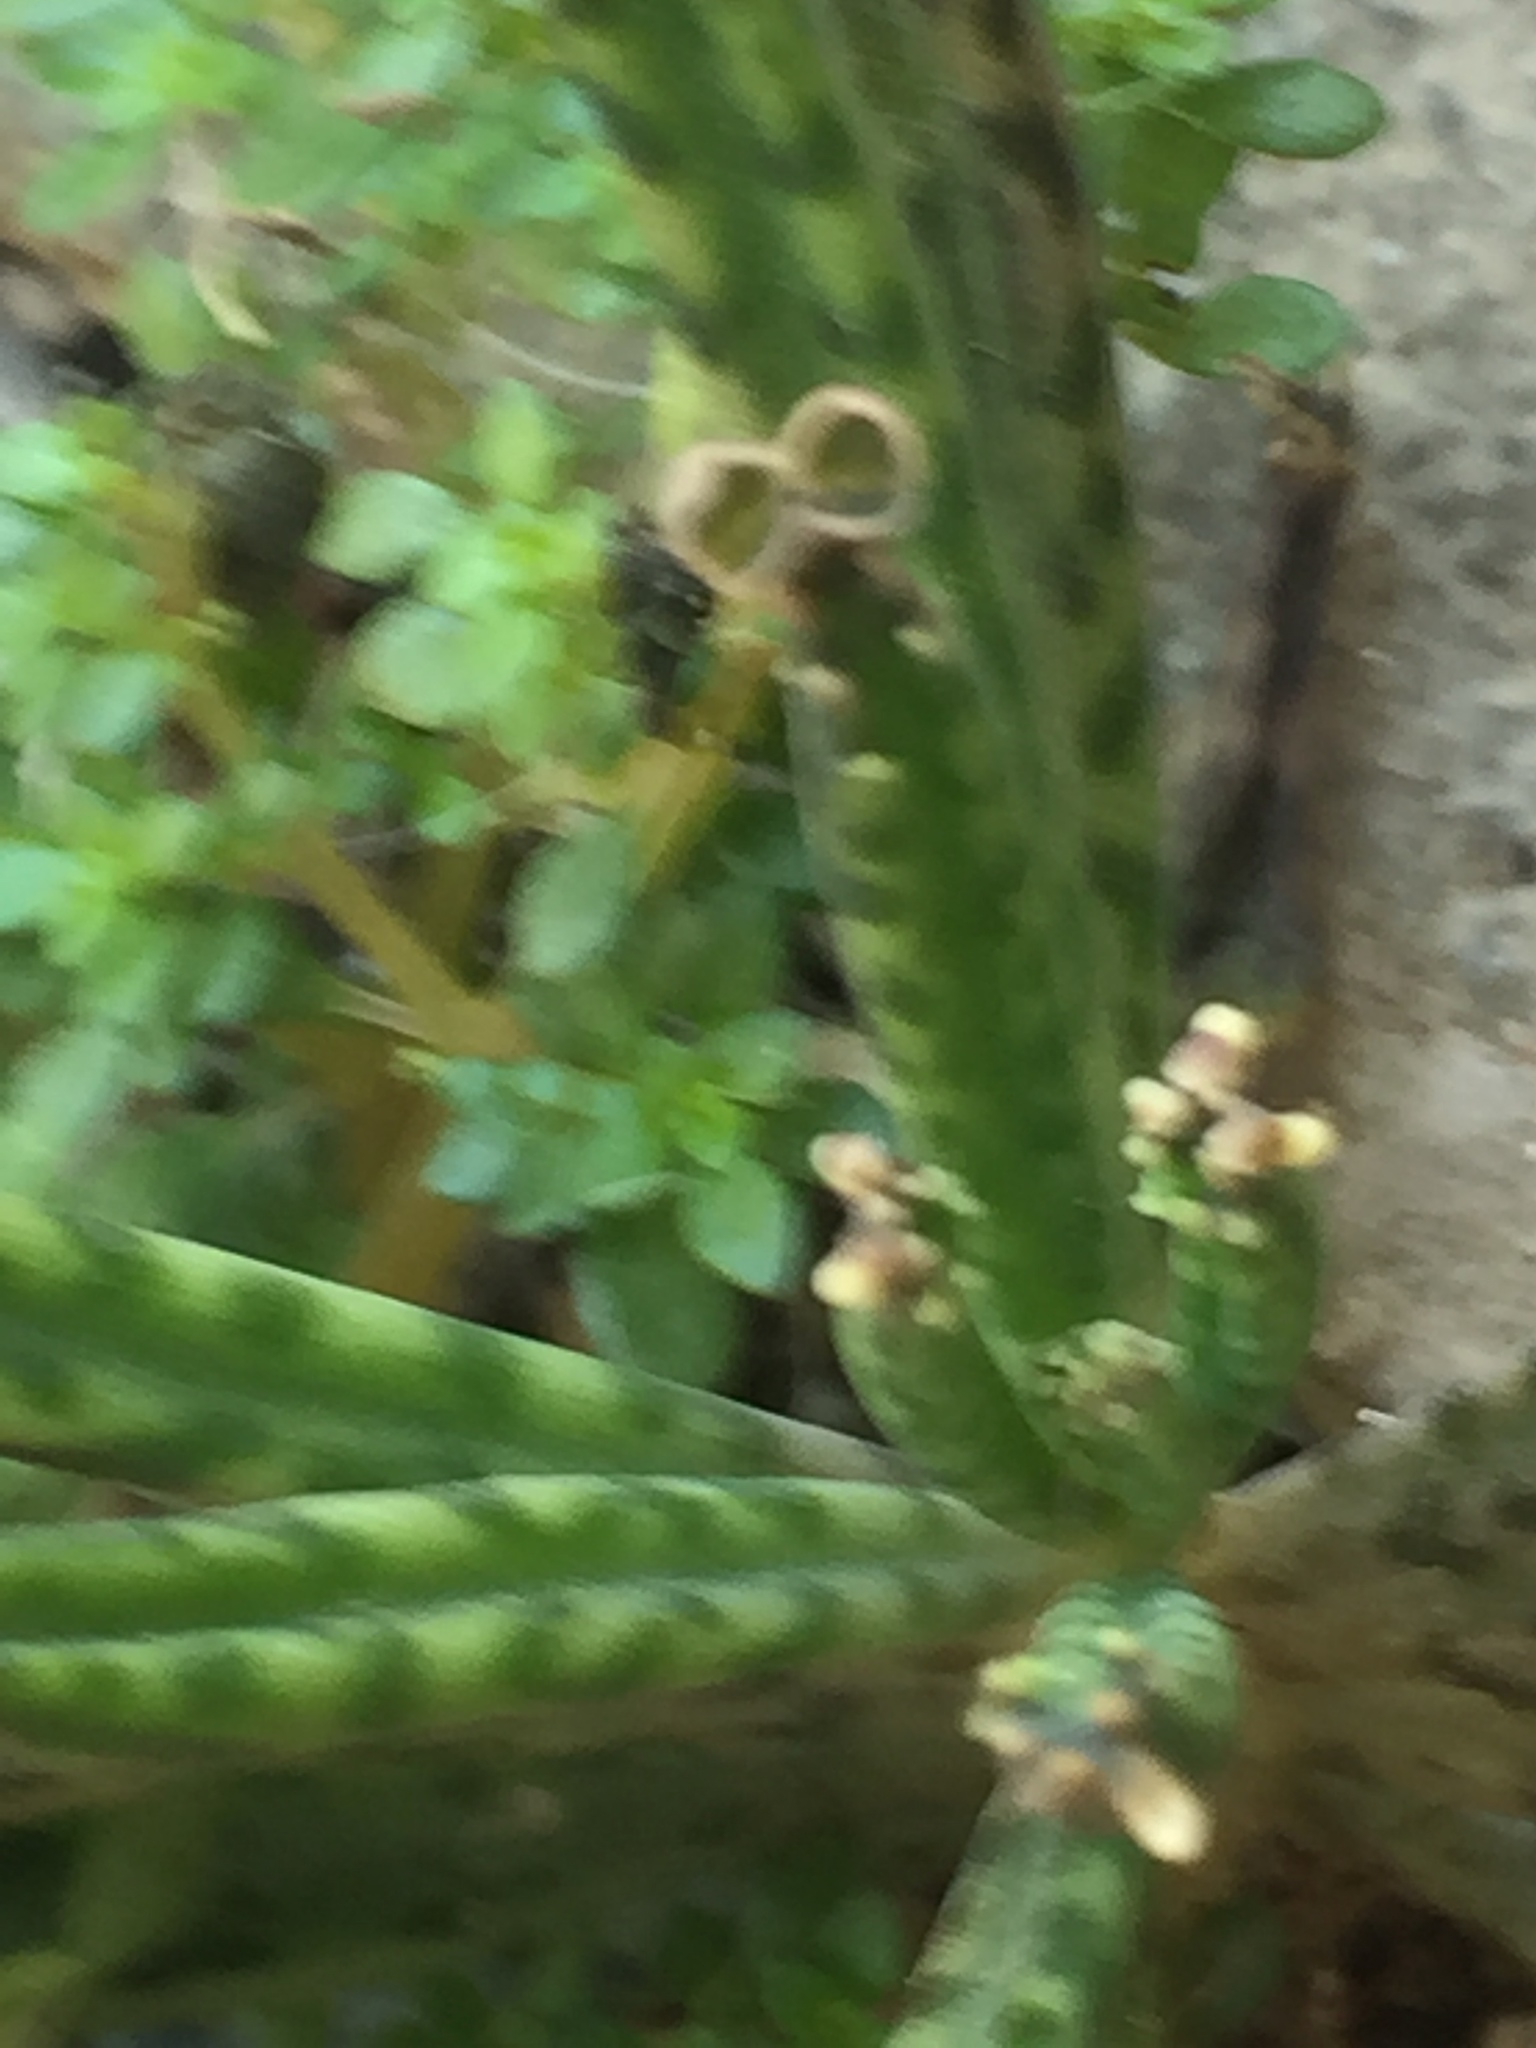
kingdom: Plantae
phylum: Tracheophyta
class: Magnoliopsida
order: Saxifragales
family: Crassulaceae
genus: Kalanchoe
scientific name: Kalanchoe delagoensis
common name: Chandelier plant
